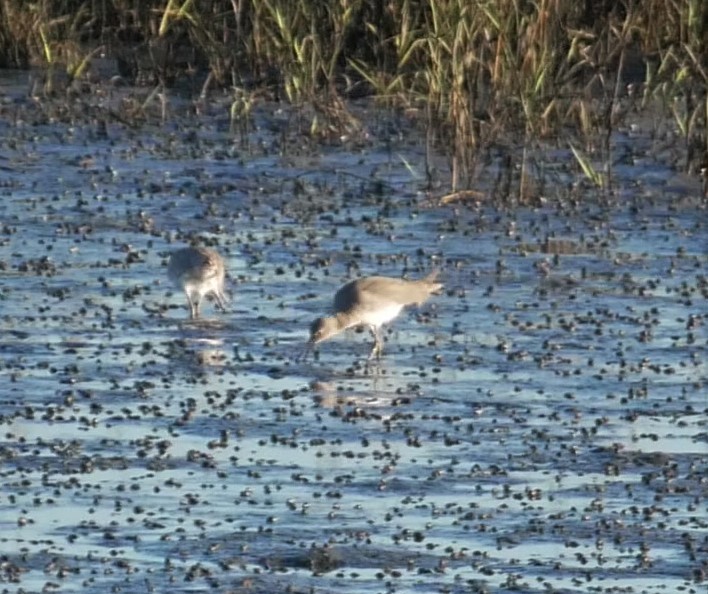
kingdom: Animalia
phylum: Chordata
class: Aves
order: Charadriiformes
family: Scolopacidae
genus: Tringa
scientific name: Tringa semipalmata
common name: Willet
